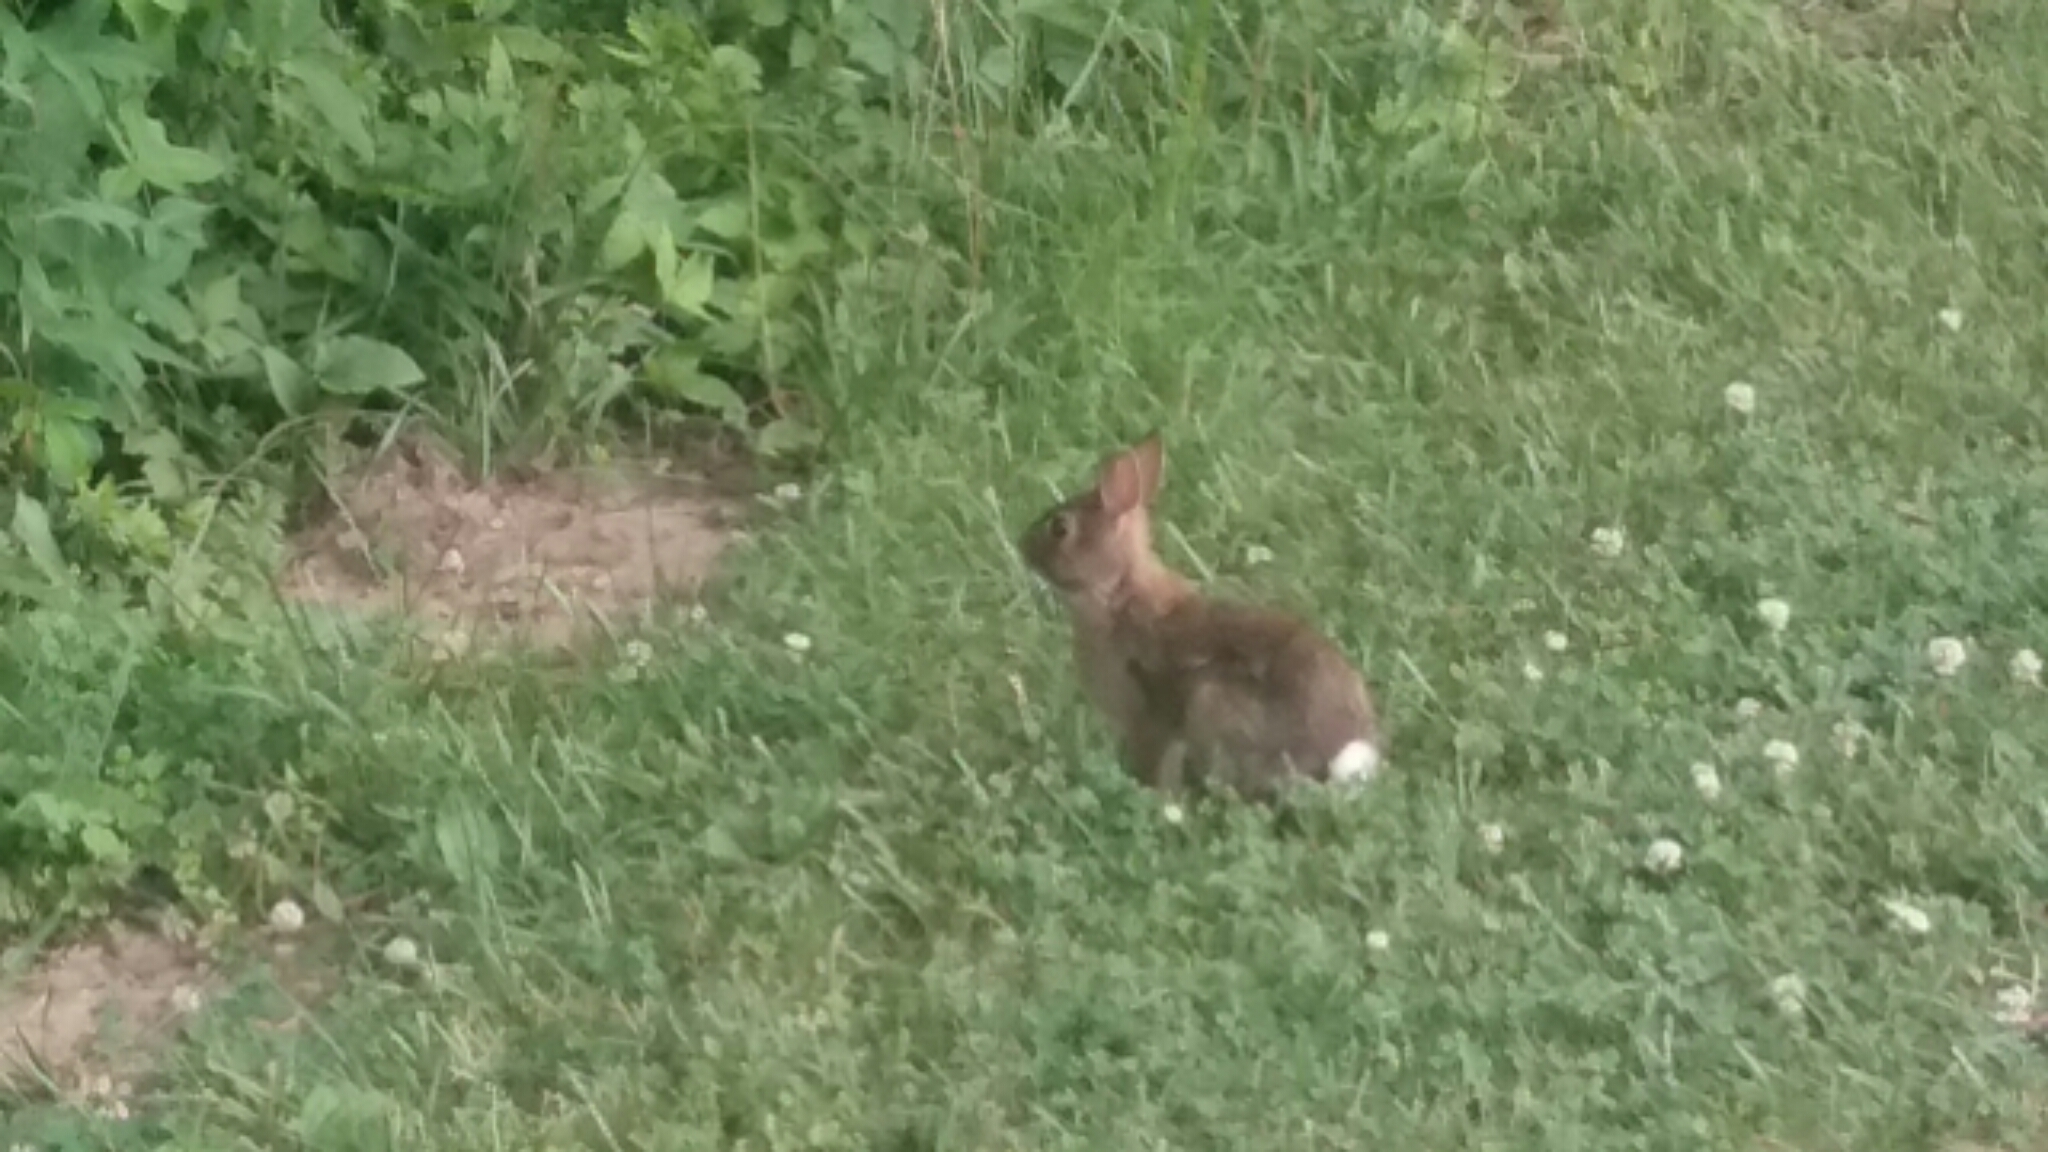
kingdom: Animalia
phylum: Chordata
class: Mammalia
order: Lagomorpha
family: Leporidae
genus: Sylvilagus
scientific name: Sylvilagus floridanus
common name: Eastern cottontail
